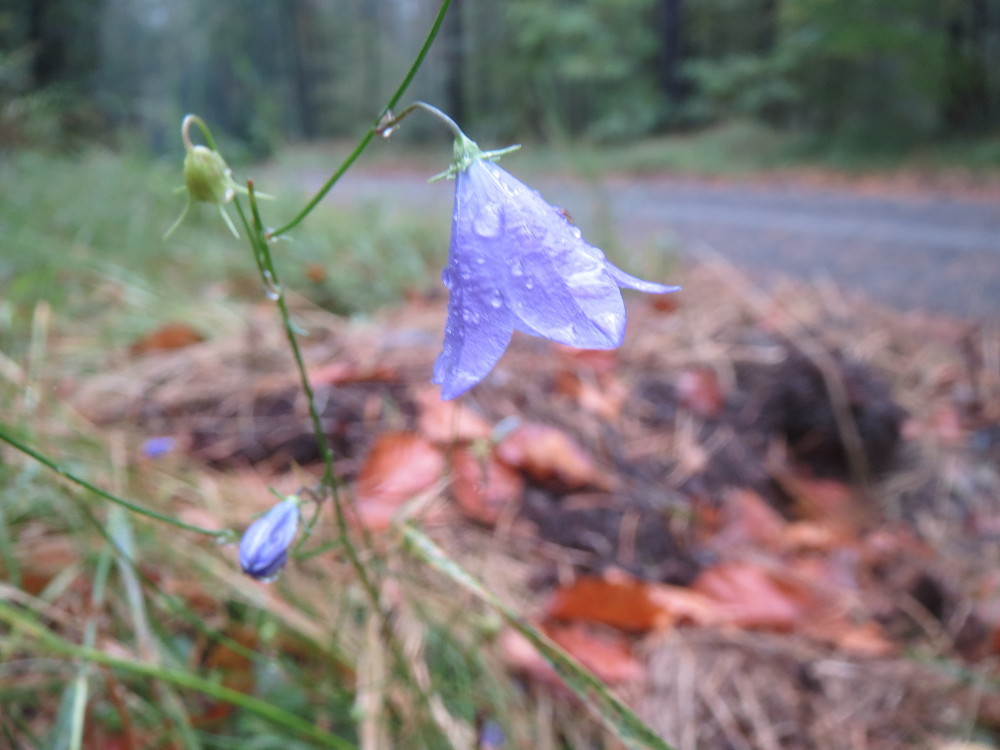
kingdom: Plantae
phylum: Tracheophyta
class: Magnoliopsida
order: Asterales
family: Campanulaceae
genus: Campanula
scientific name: Campanula rotundifolia
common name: Harebell
